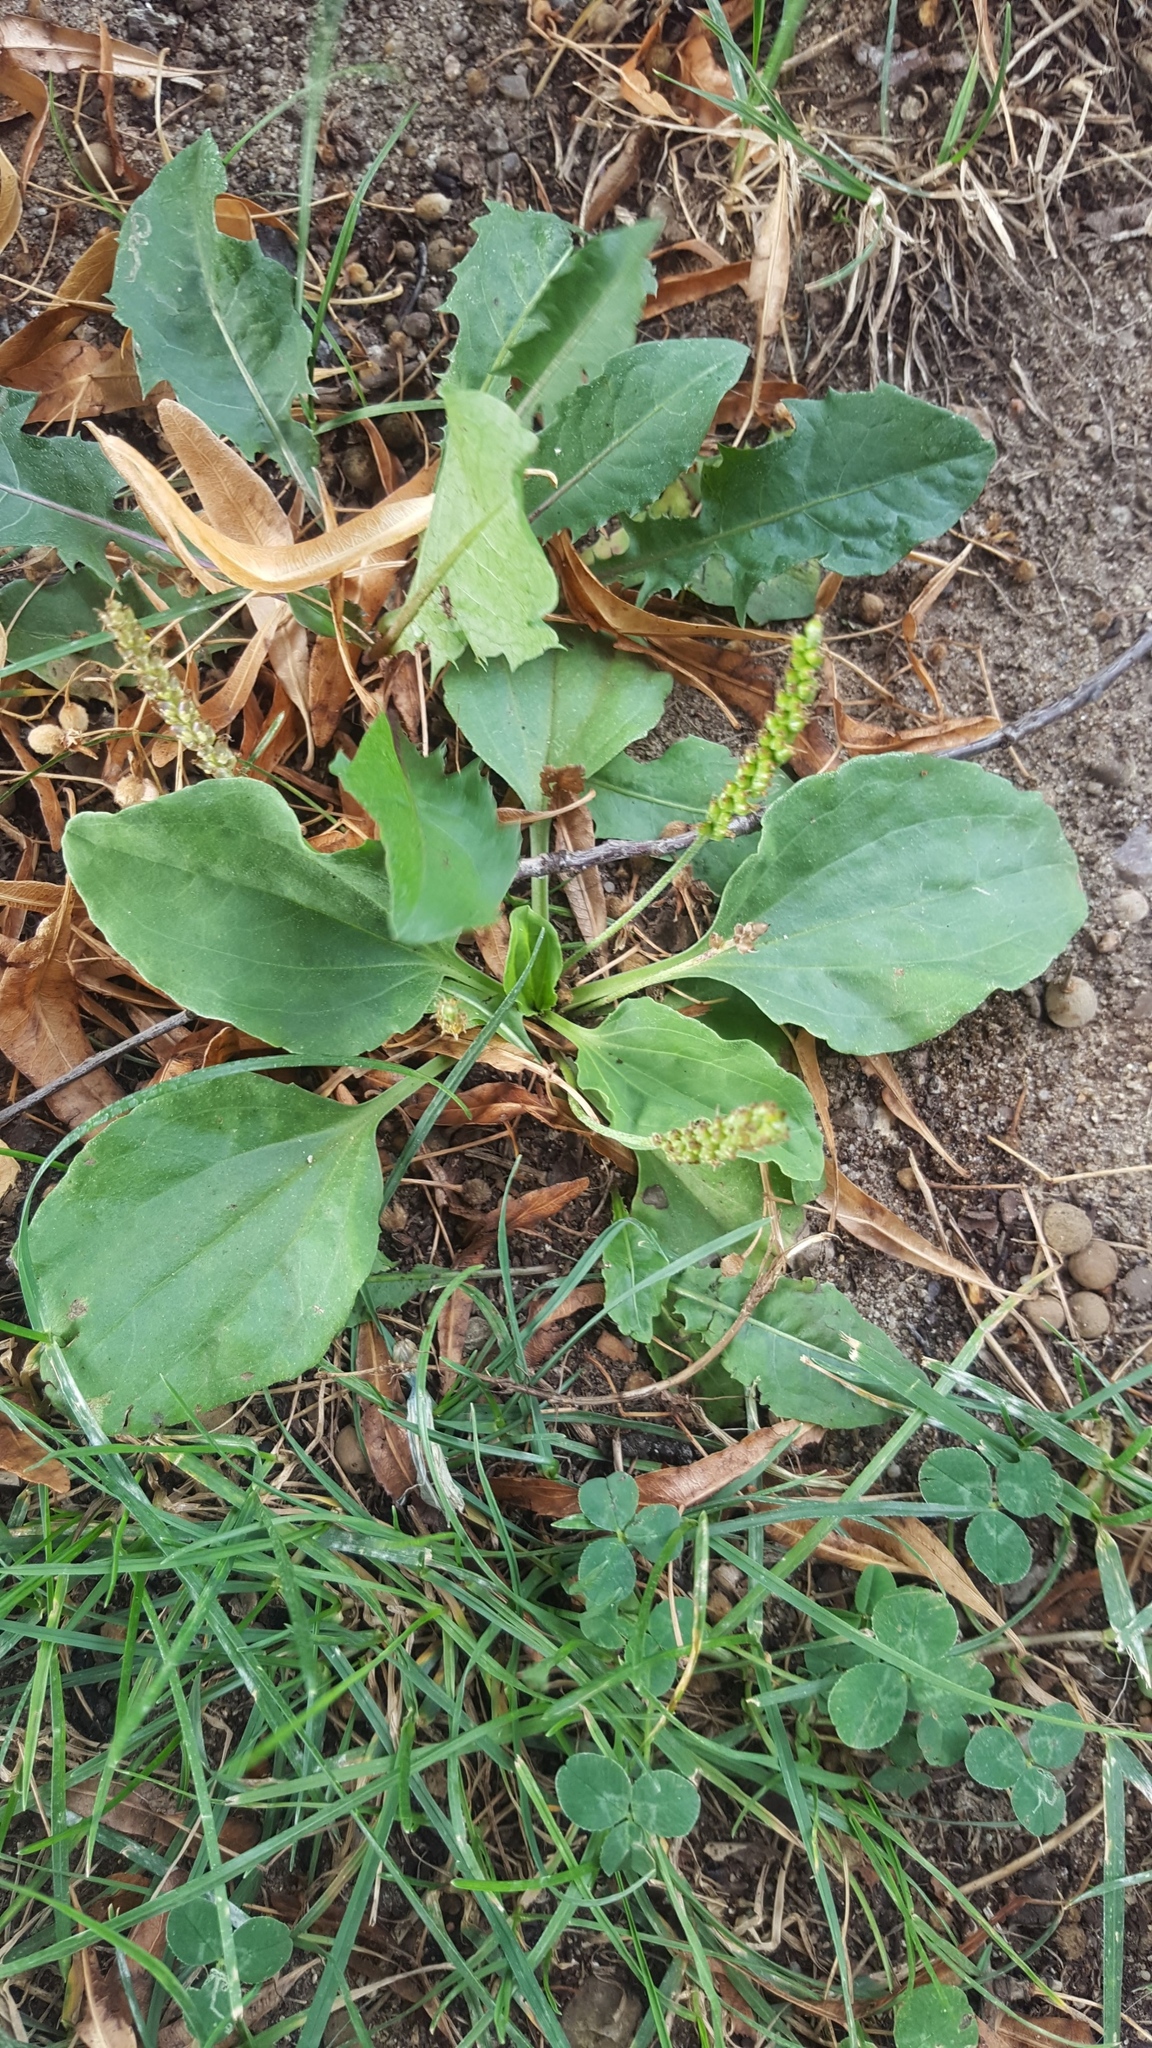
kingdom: Plantae
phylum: Tracheophyta
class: Magnoliopsida
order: Lamiales
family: Plantaginaceae
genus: Plantago
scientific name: Plantago major
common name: Common plantain
